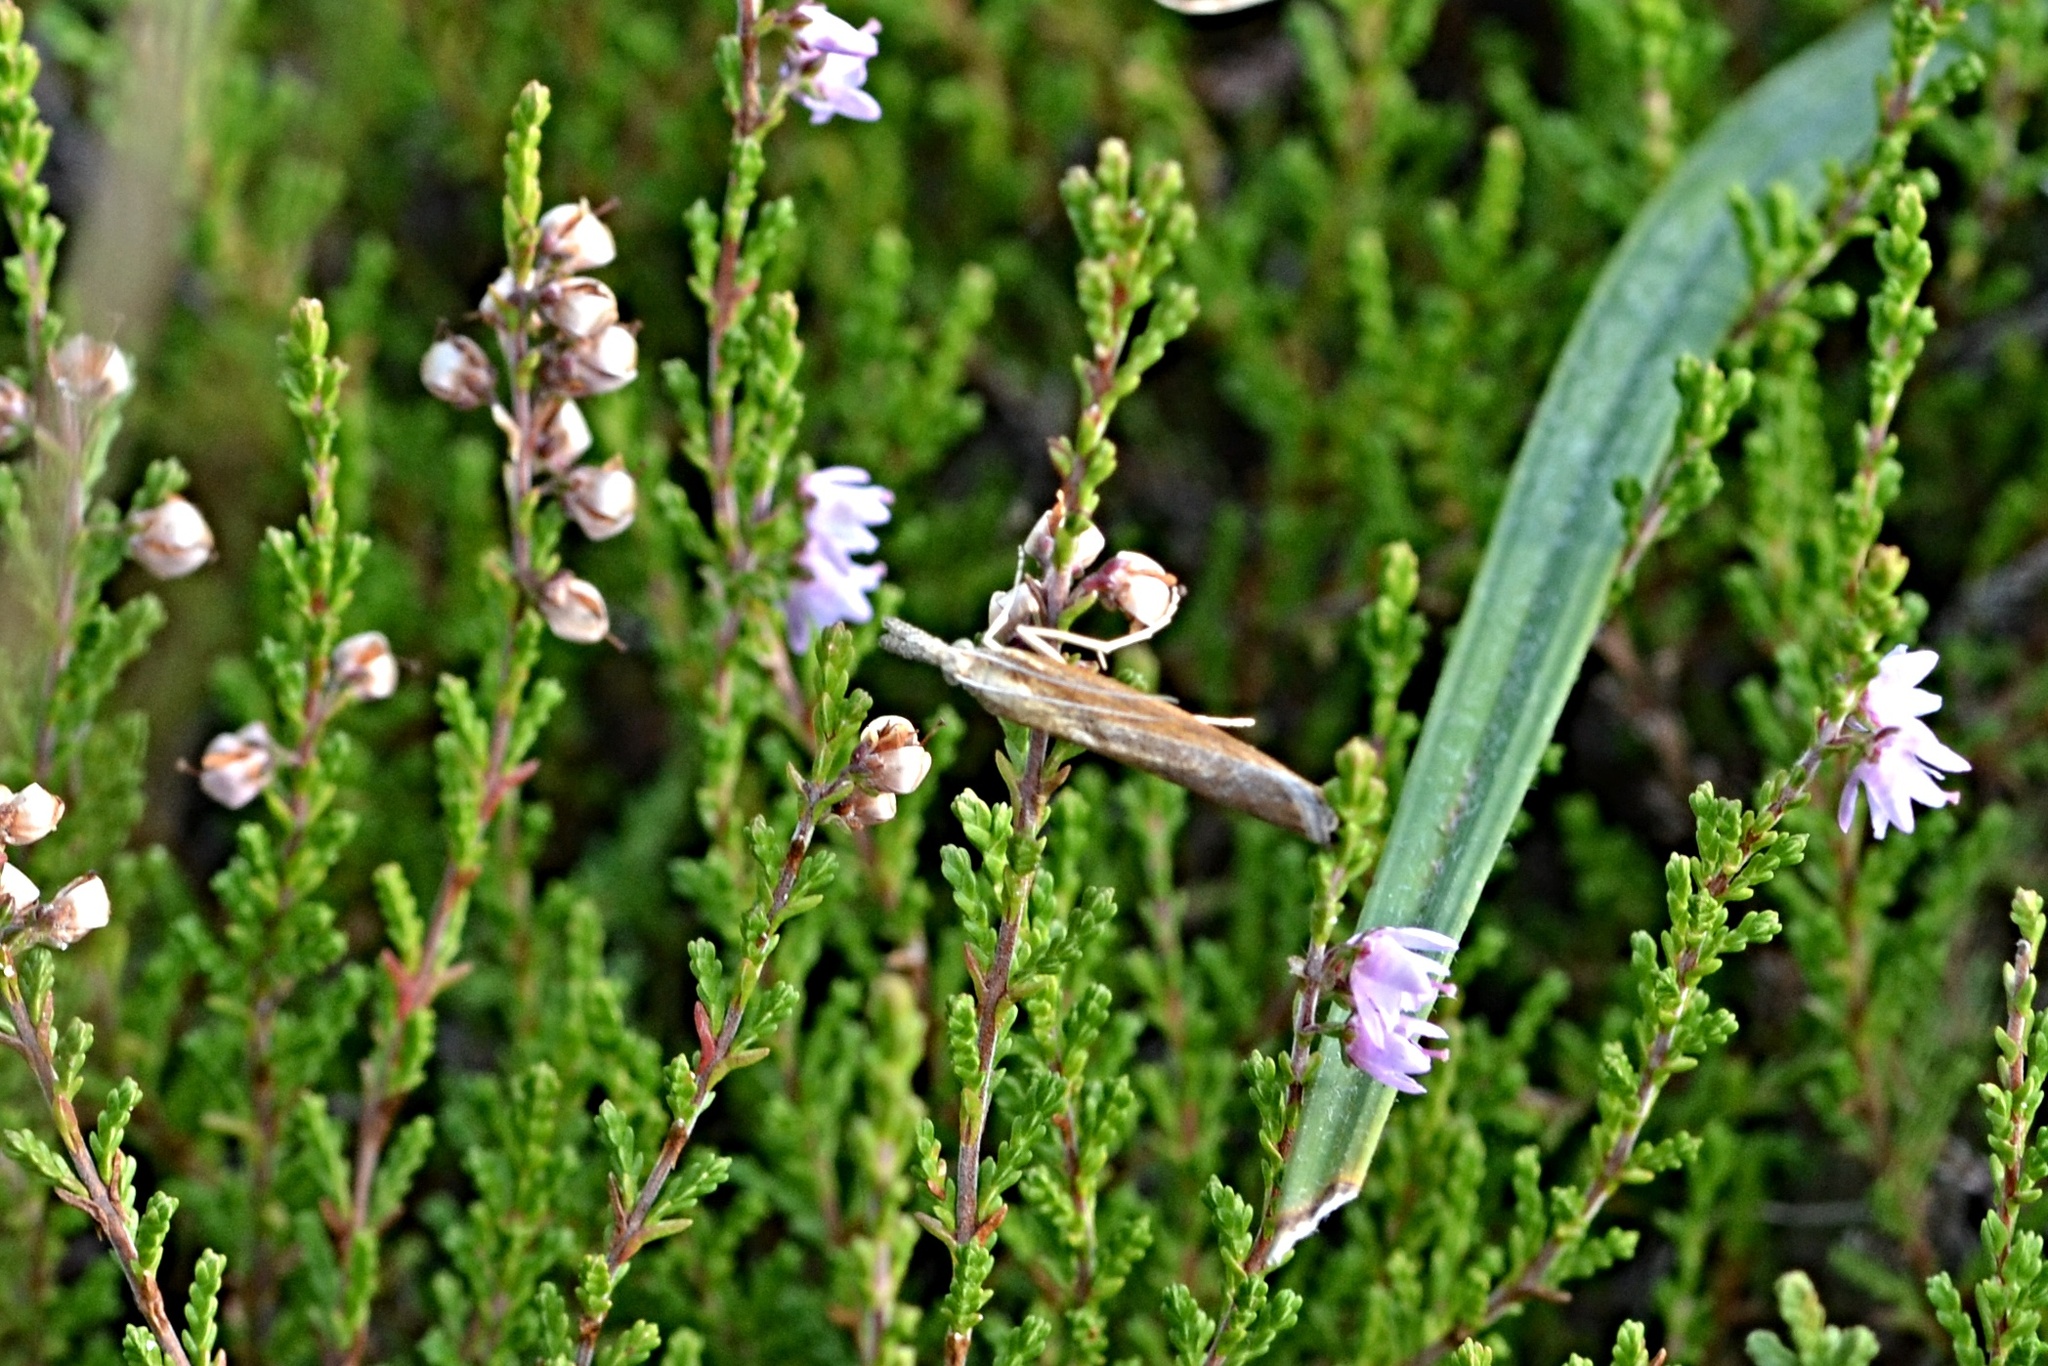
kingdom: Animalia
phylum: Arthropoda
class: Insecta
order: Lepidoptera
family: Crambidae
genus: Agriphila
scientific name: Agriphila tristellus
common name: Common grass-veneer
